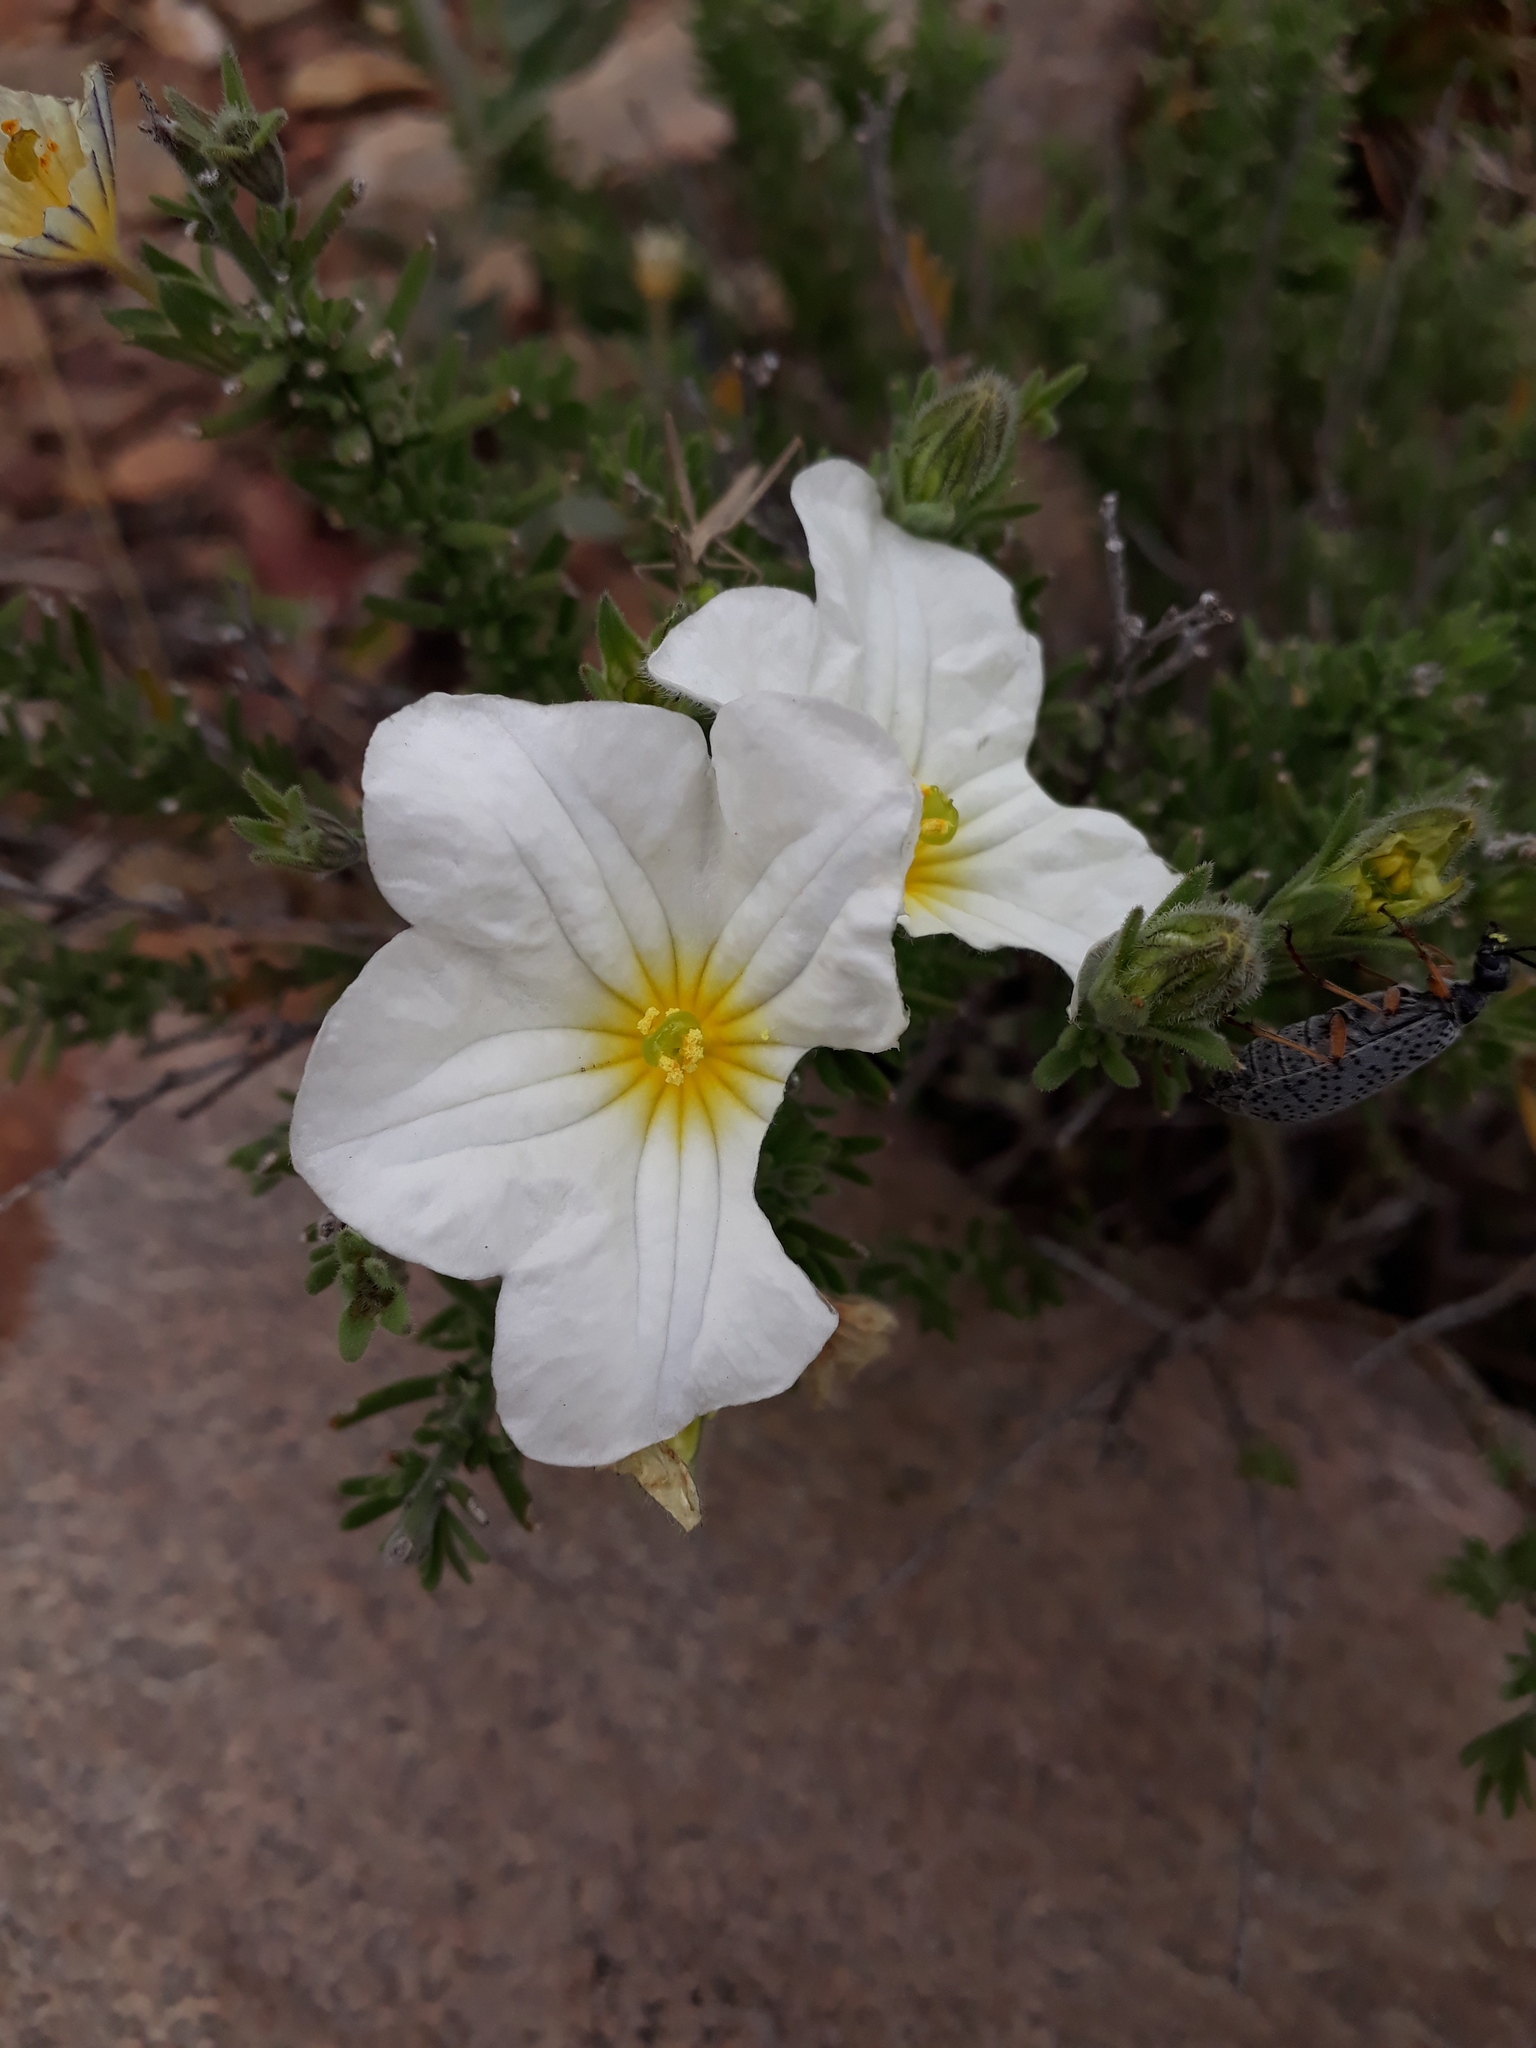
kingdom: Plantae
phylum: Tracheophyta
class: Magnoliopsida
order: Solanales
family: Solanaceae
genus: Nierembergia
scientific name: Nierembergia tandilensis
